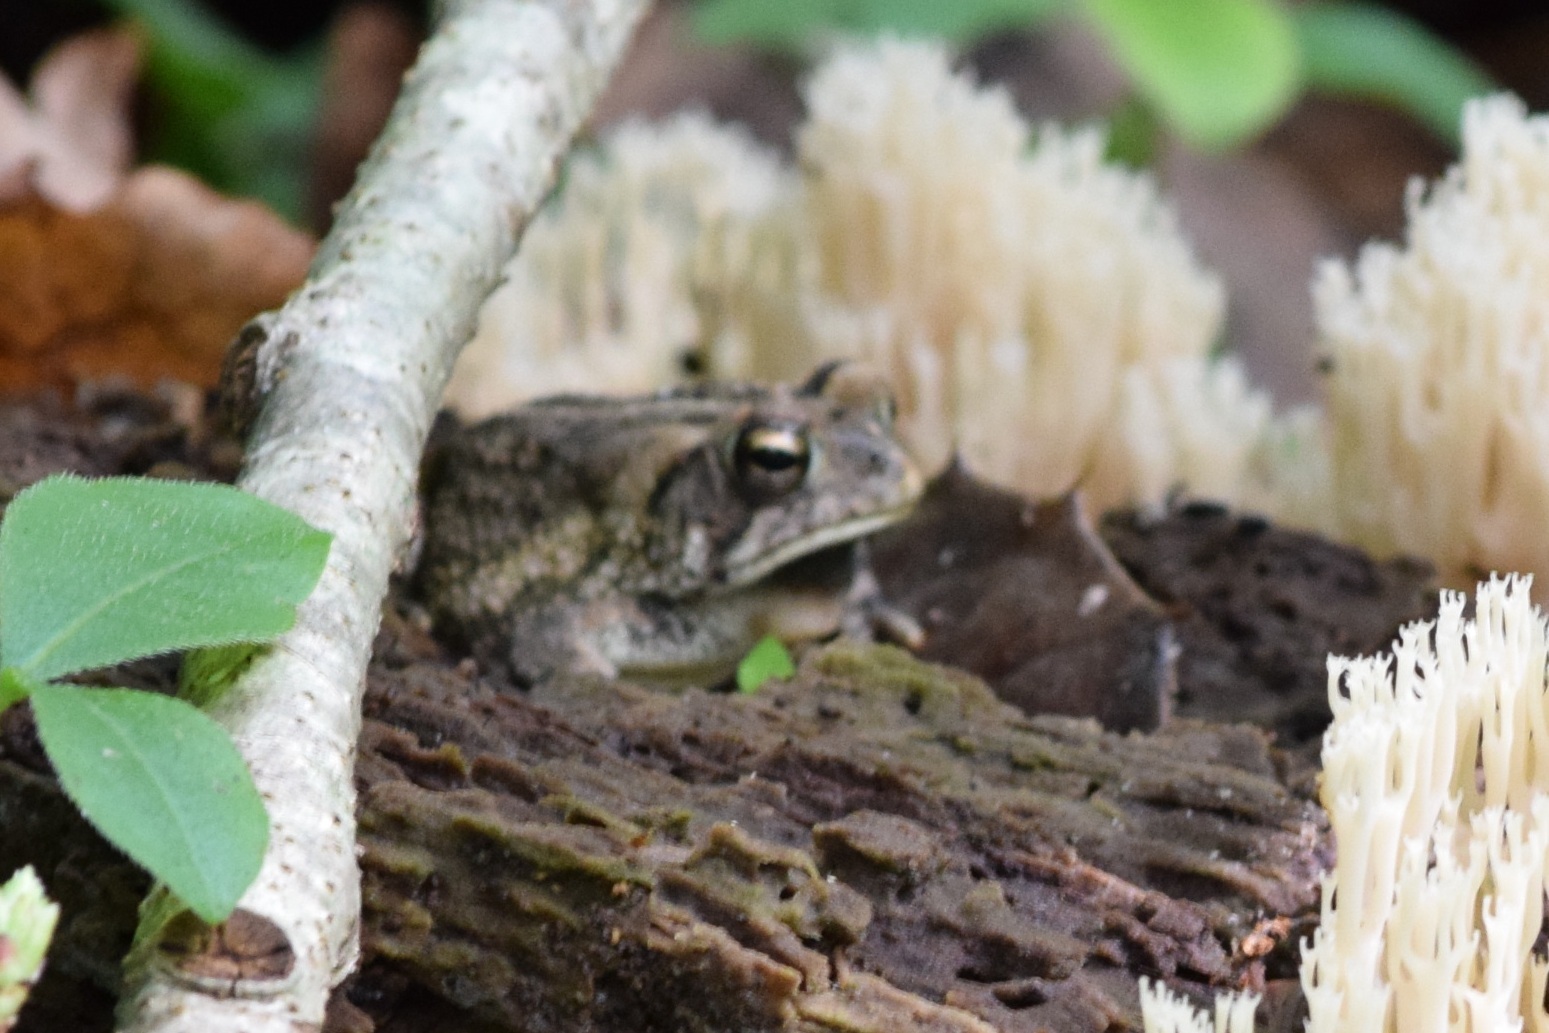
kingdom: Animalia
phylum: Chordata
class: Amphibia
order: Anura
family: Bufonidae
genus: Anaxyrus
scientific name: Anaxyrus fowleri
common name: Fowler's toad
